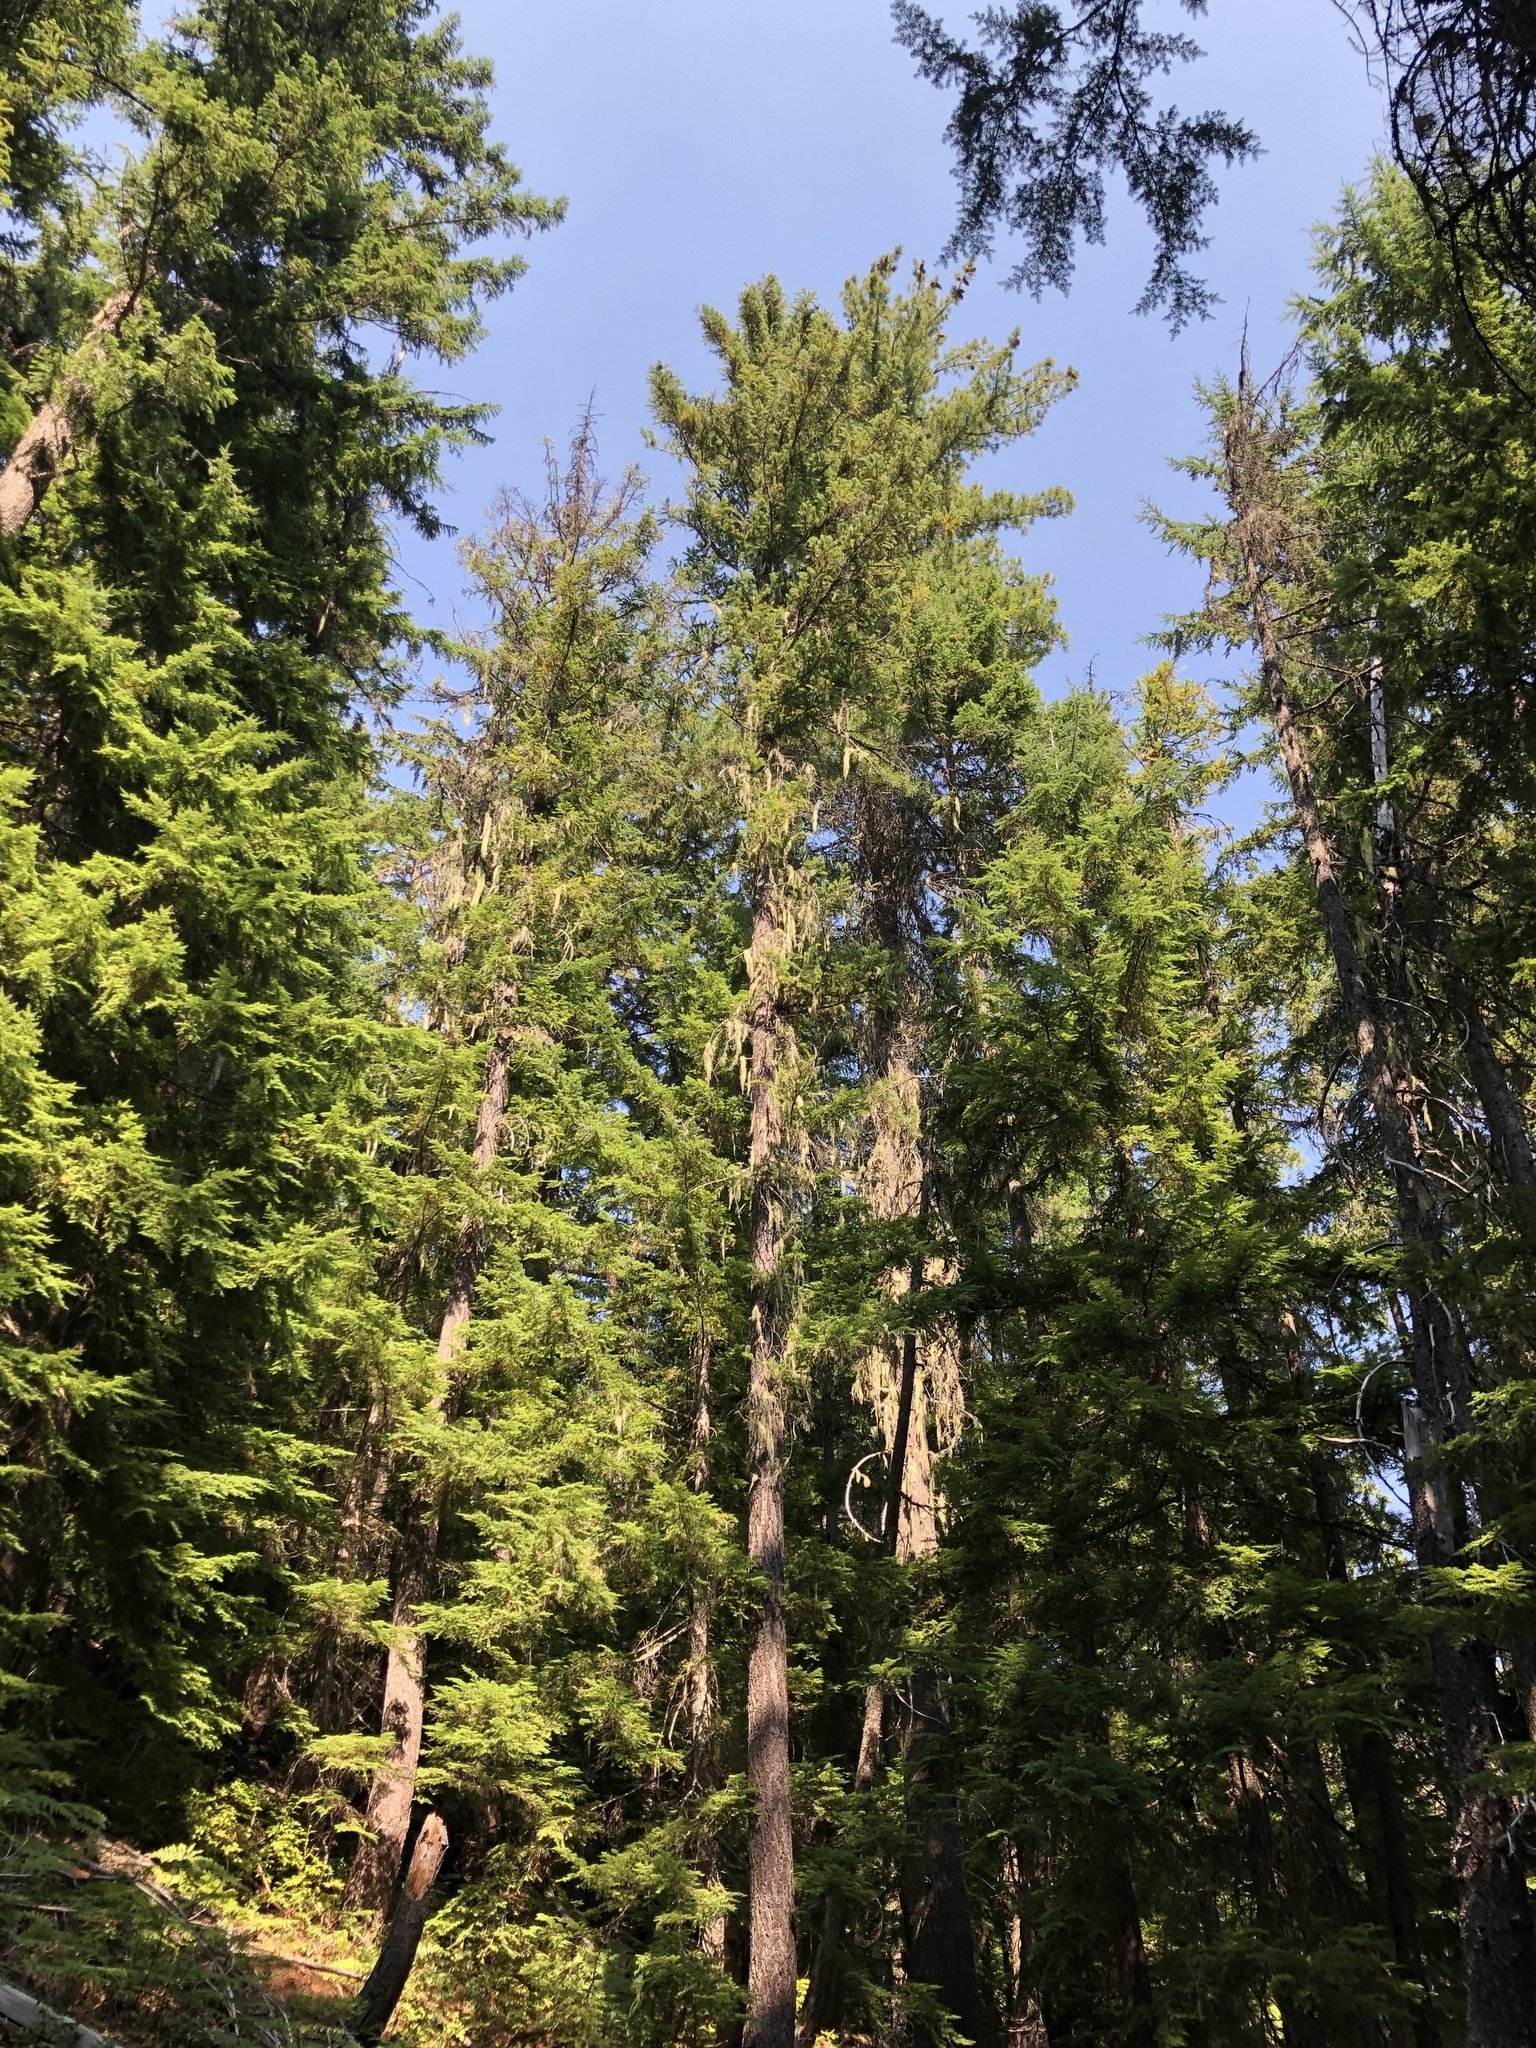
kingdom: Plantae
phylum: Tracheophyta
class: Pinopsida
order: Pinales
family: Pinaceae
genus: Pseudotsuga
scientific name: Pseudotsuga menziesii
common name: Douglas fir
